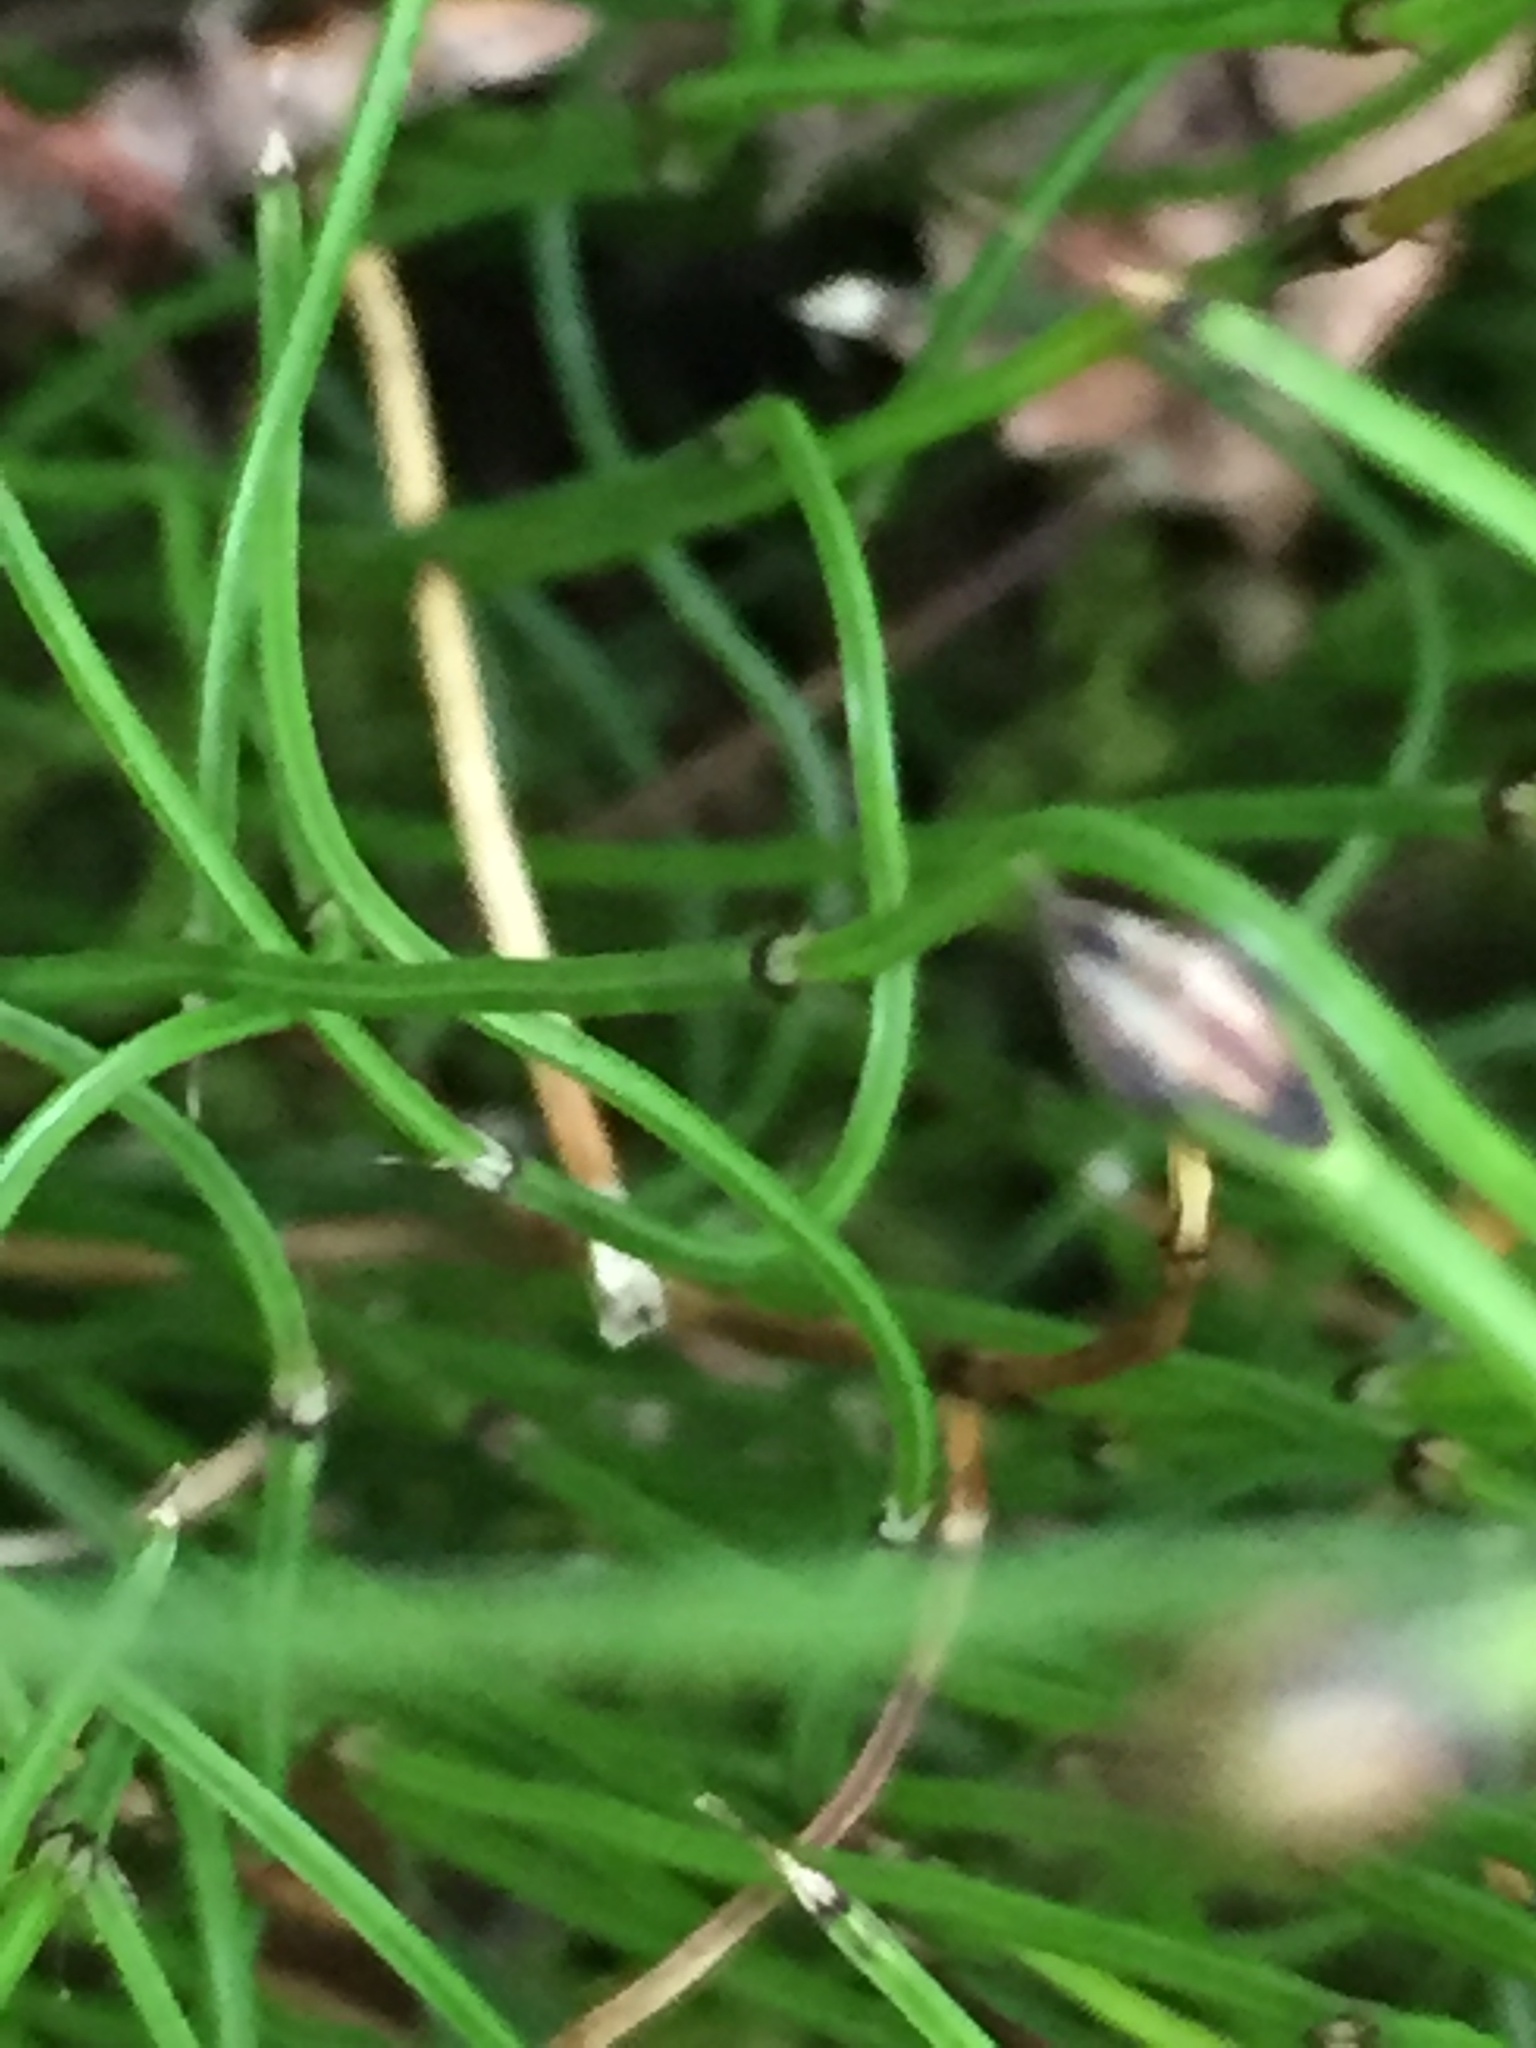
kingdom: Plantae
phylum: Tracheophyta
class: Polypodiopsida
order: Equisetales
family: Equisetaceae
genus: Equisetum
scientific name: Equisetum scirpoides
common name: Delicate horsetail
